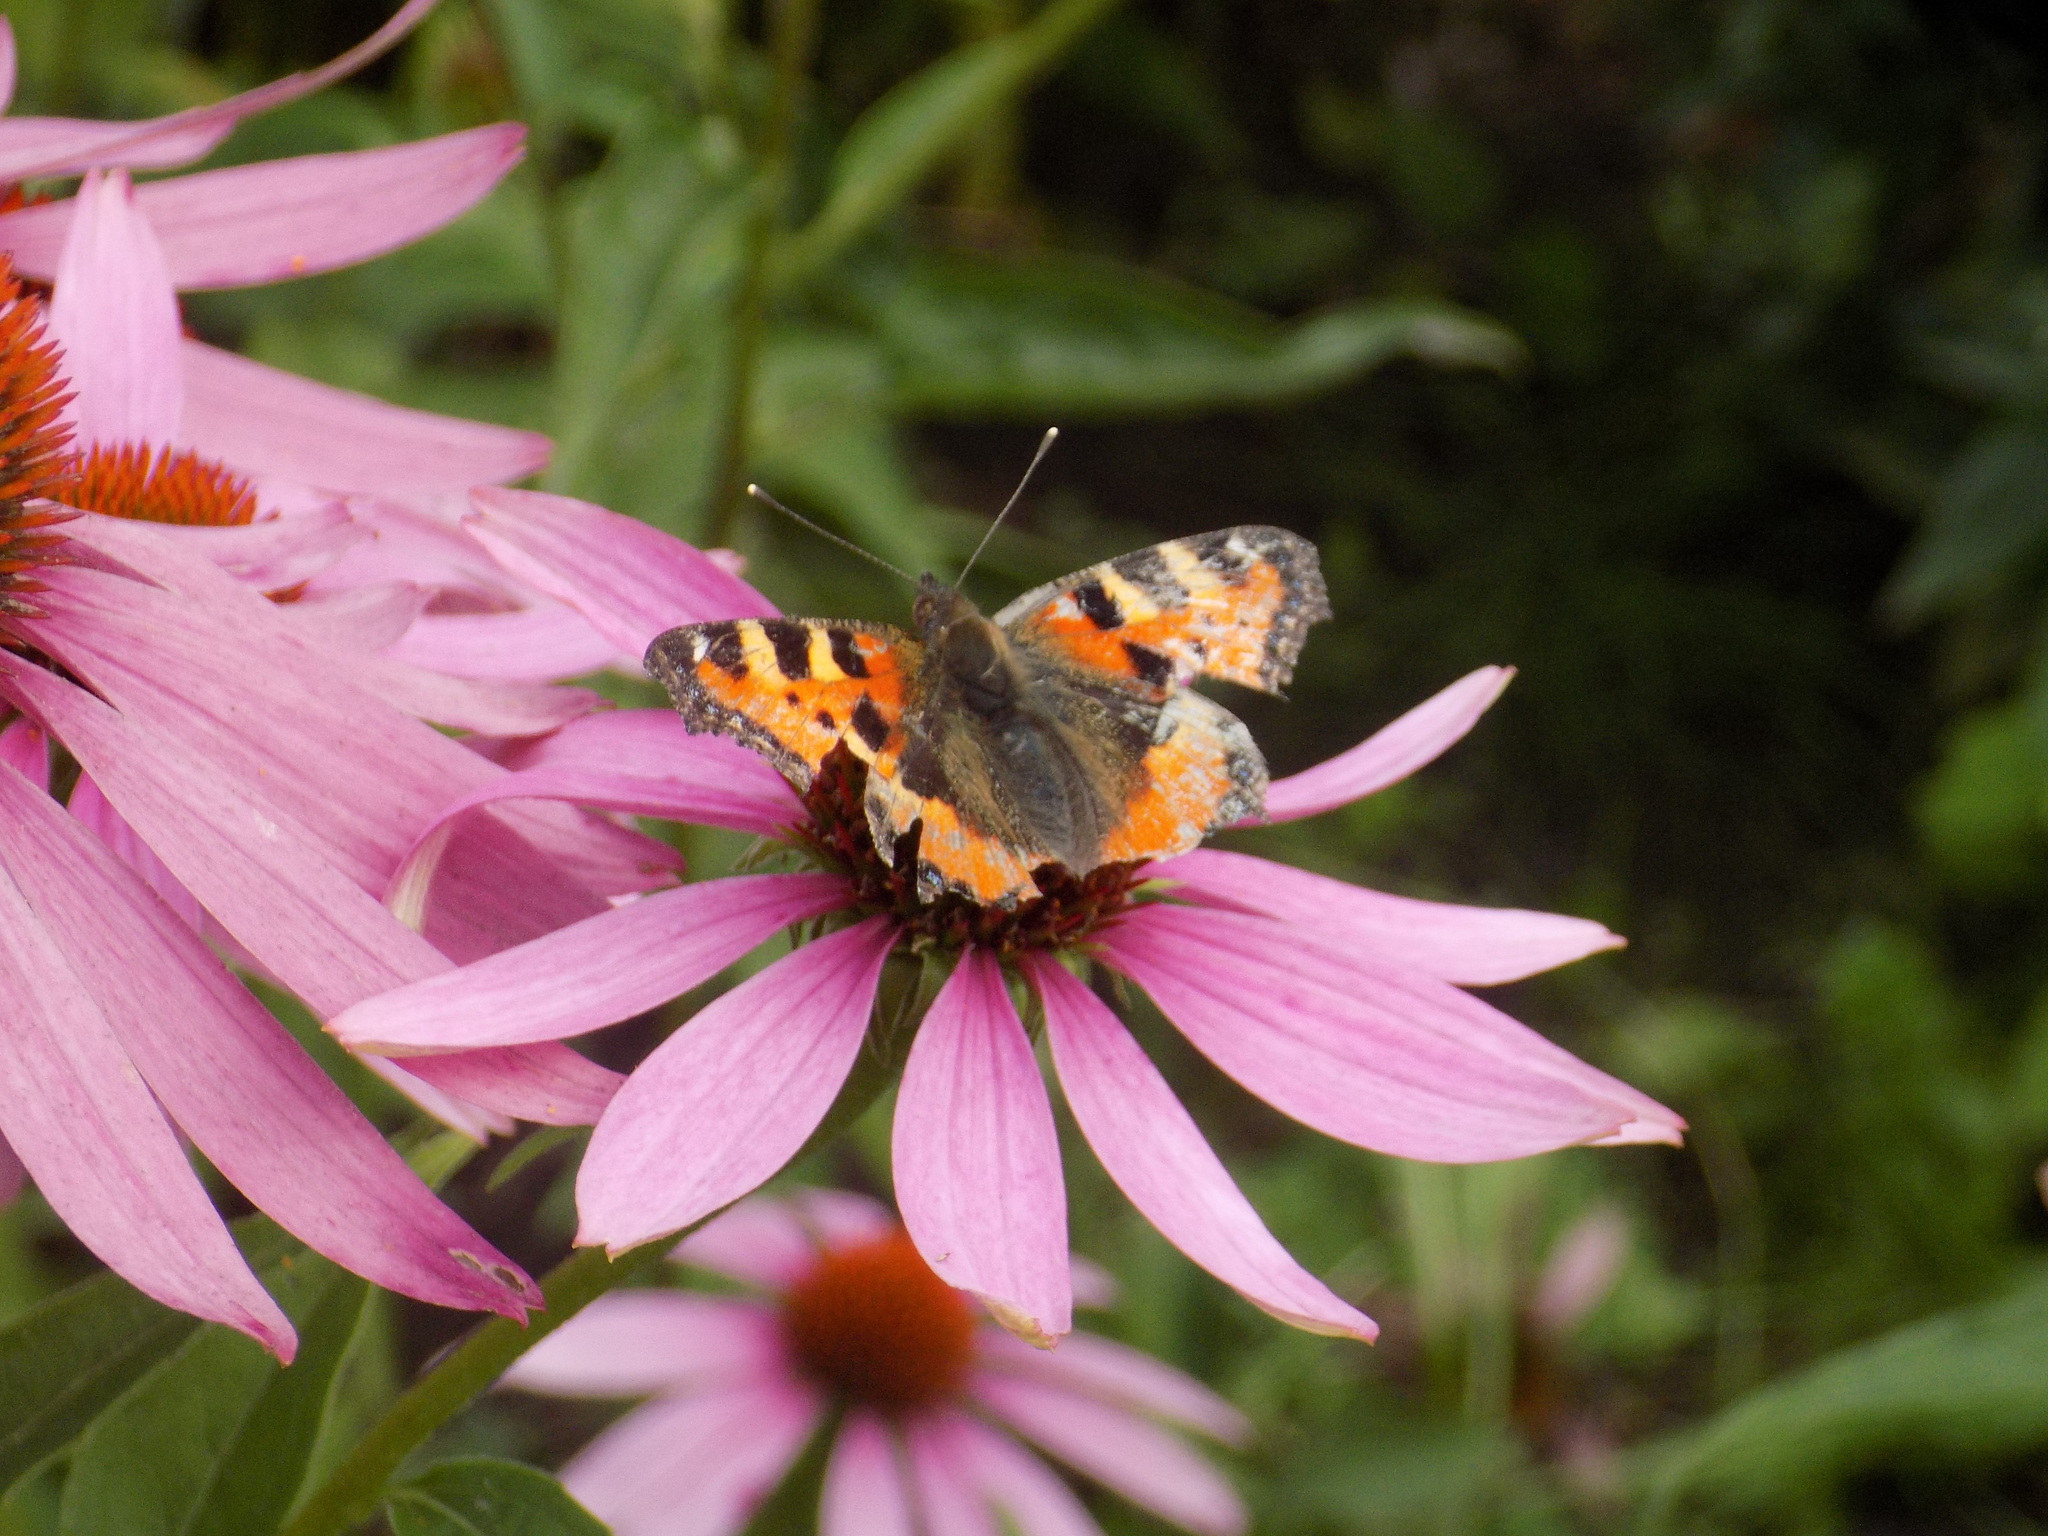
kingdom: Animalia
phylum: Arthropoda
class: Insecta
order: Lepidoptera
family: Nymphalidae
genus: Aglais
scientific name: Aglais urticae
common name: Small tortoiseshell
